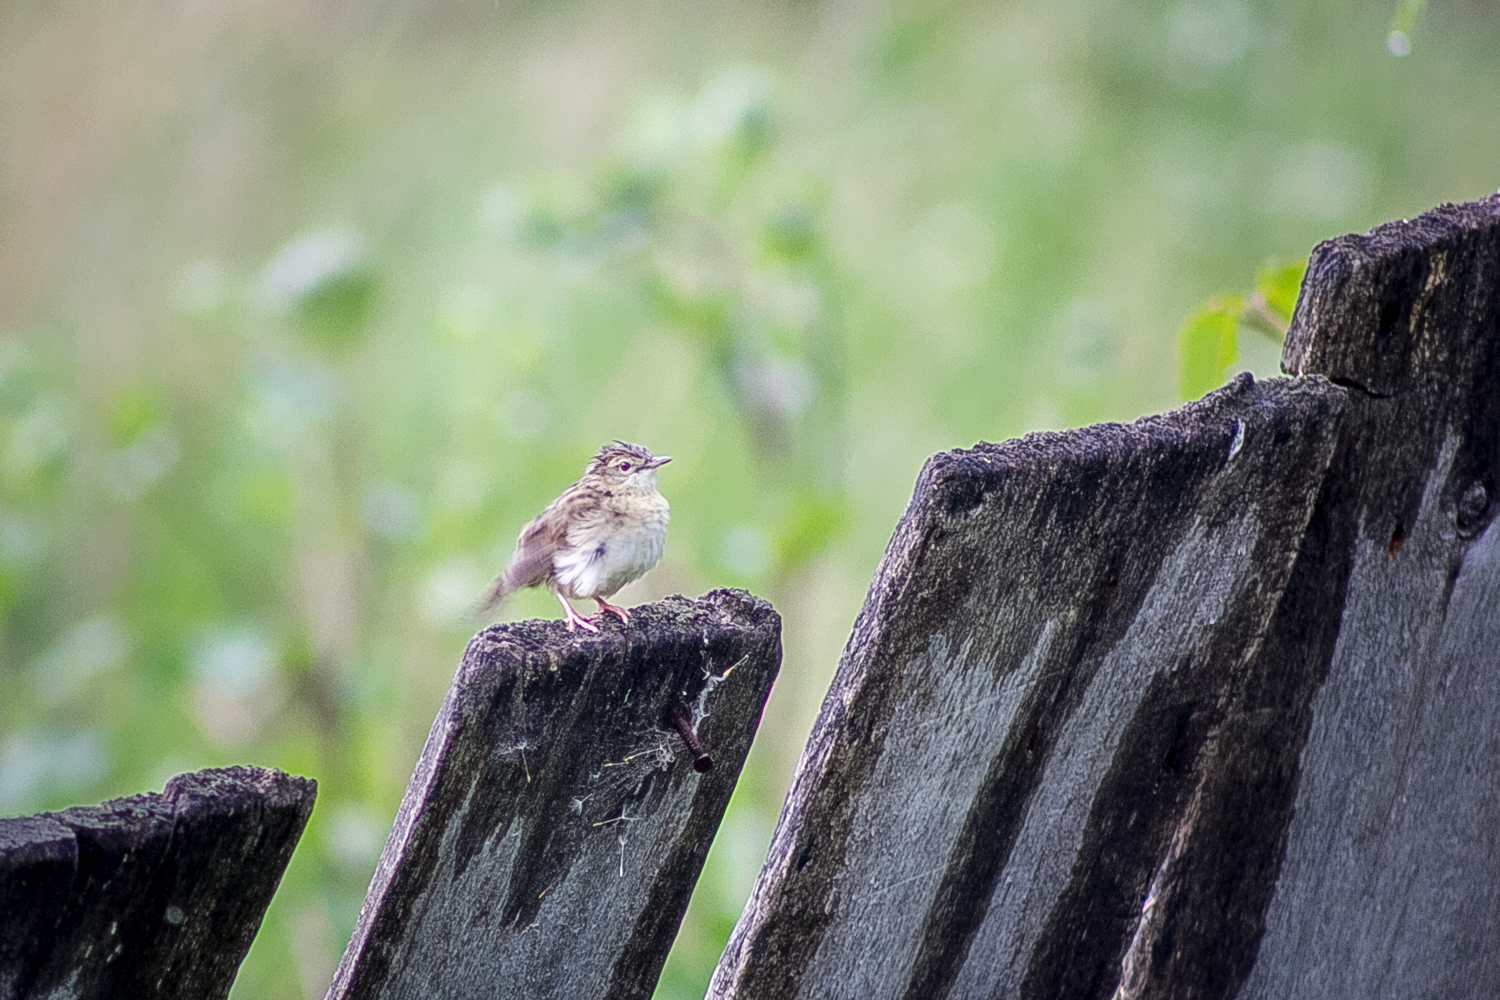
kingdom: Animalia
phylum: Chordata
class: Aves
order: Passeriformes
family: Locustellidae
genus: Locustella
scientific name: Locustella naevia
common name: Common grasshopper warbler
